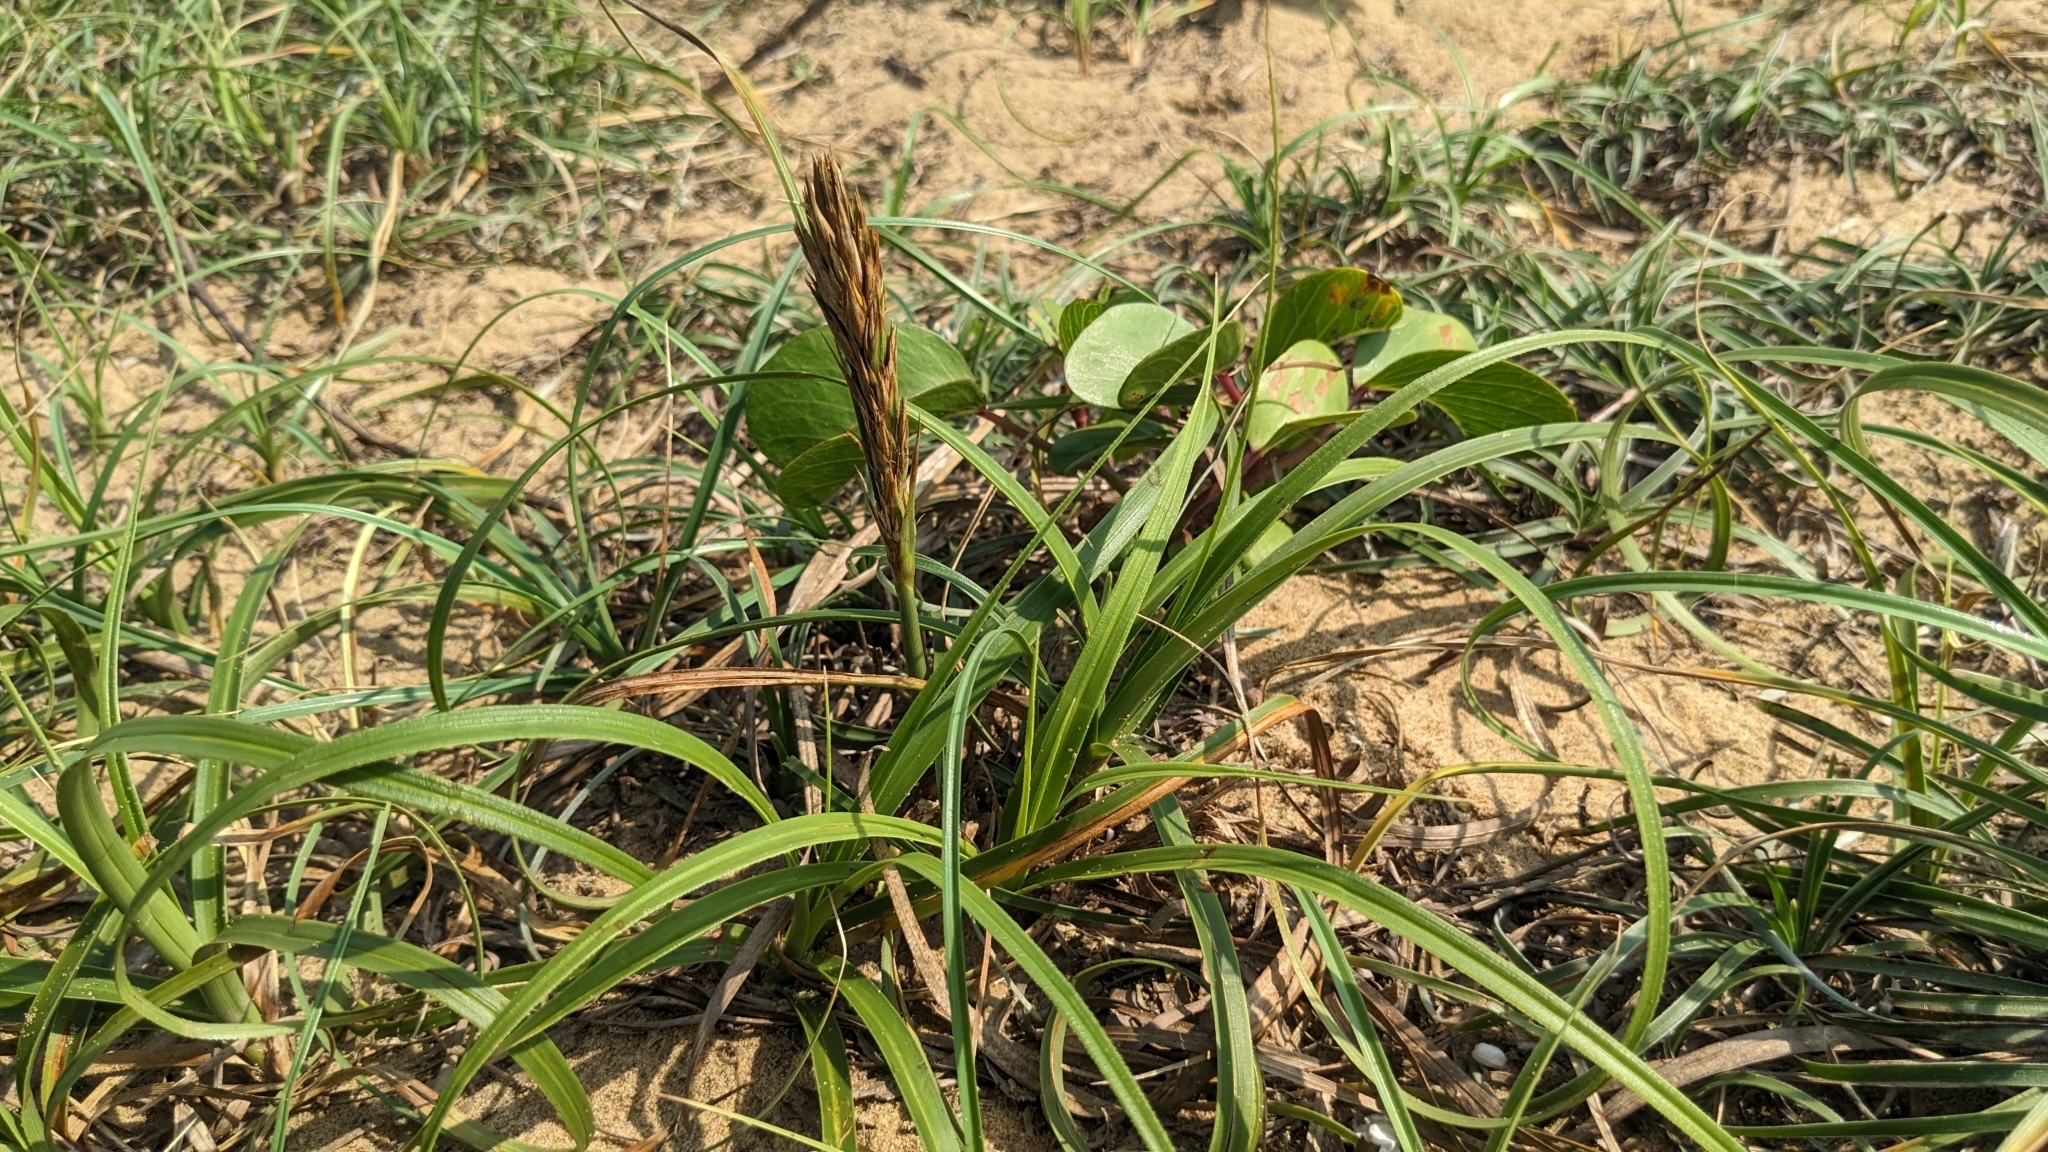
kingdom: Plantae
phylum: Tracheophyta
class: Liliopsida
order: Poales
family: Cyperaceae
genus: Carex
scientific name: Carex kobomugi
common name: Japanese sedge
